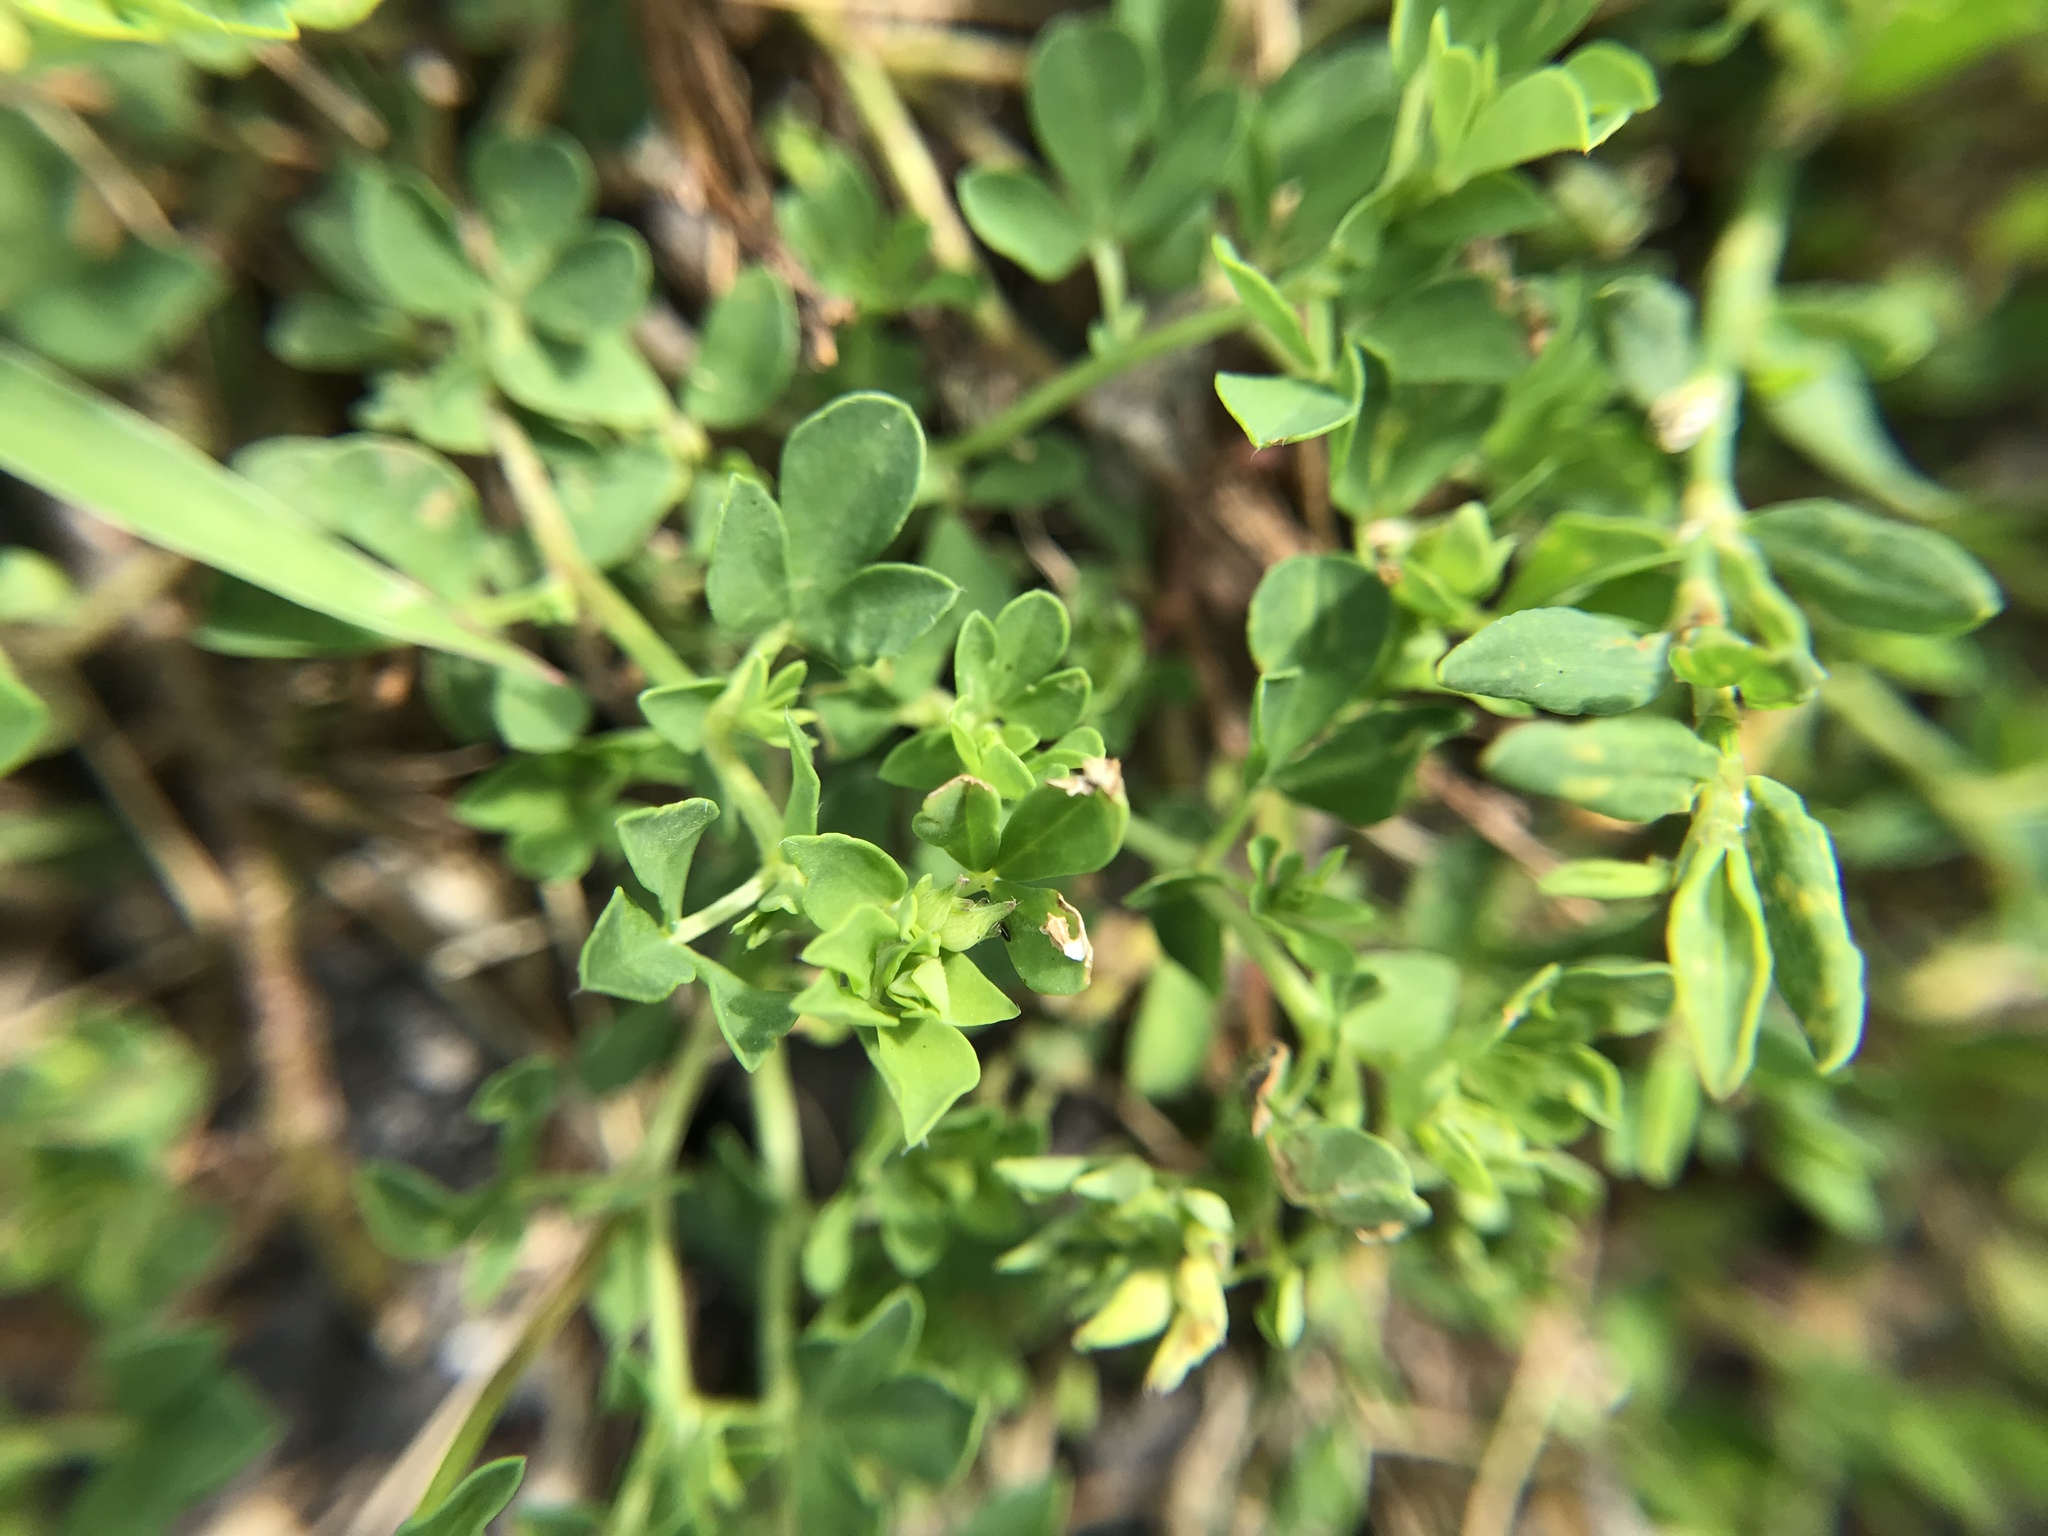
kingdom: Plantae
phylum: Tracheophyta
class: Magnoliopsida
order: Fabales
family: Fabaceae
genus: Lotus
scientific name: Lotus corniculatus
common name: Common bird's-foot-trefoil
